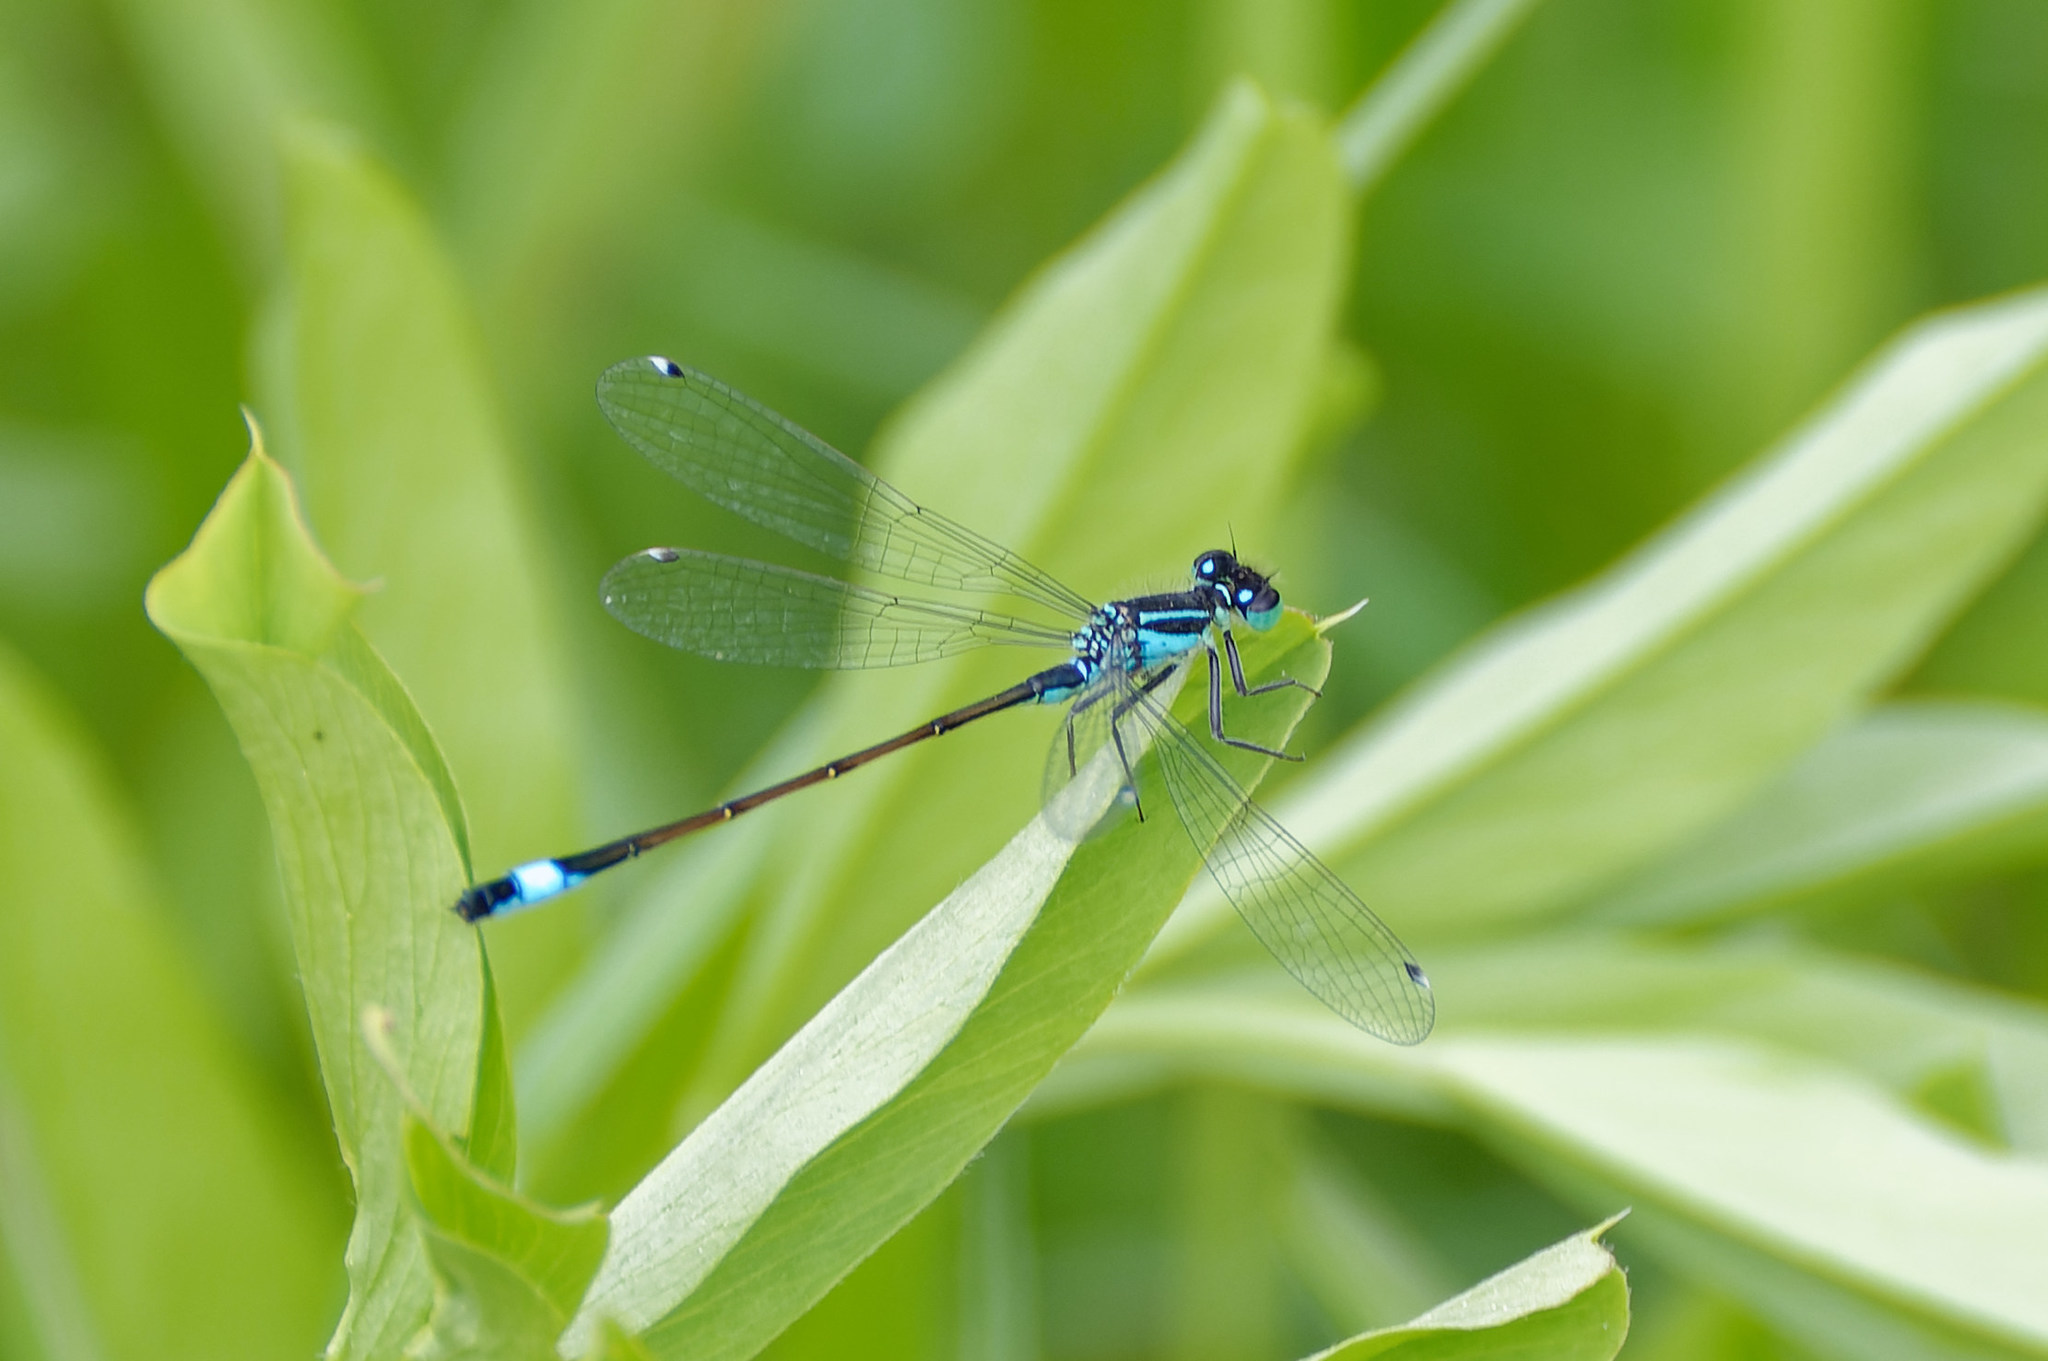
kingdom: Animalia
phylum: Arthropoda
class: Insecta
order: Odonata
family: Coenagrionidae
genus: Ischnura
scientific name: Ischnura elegans
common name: Blue-tailed damselfly
